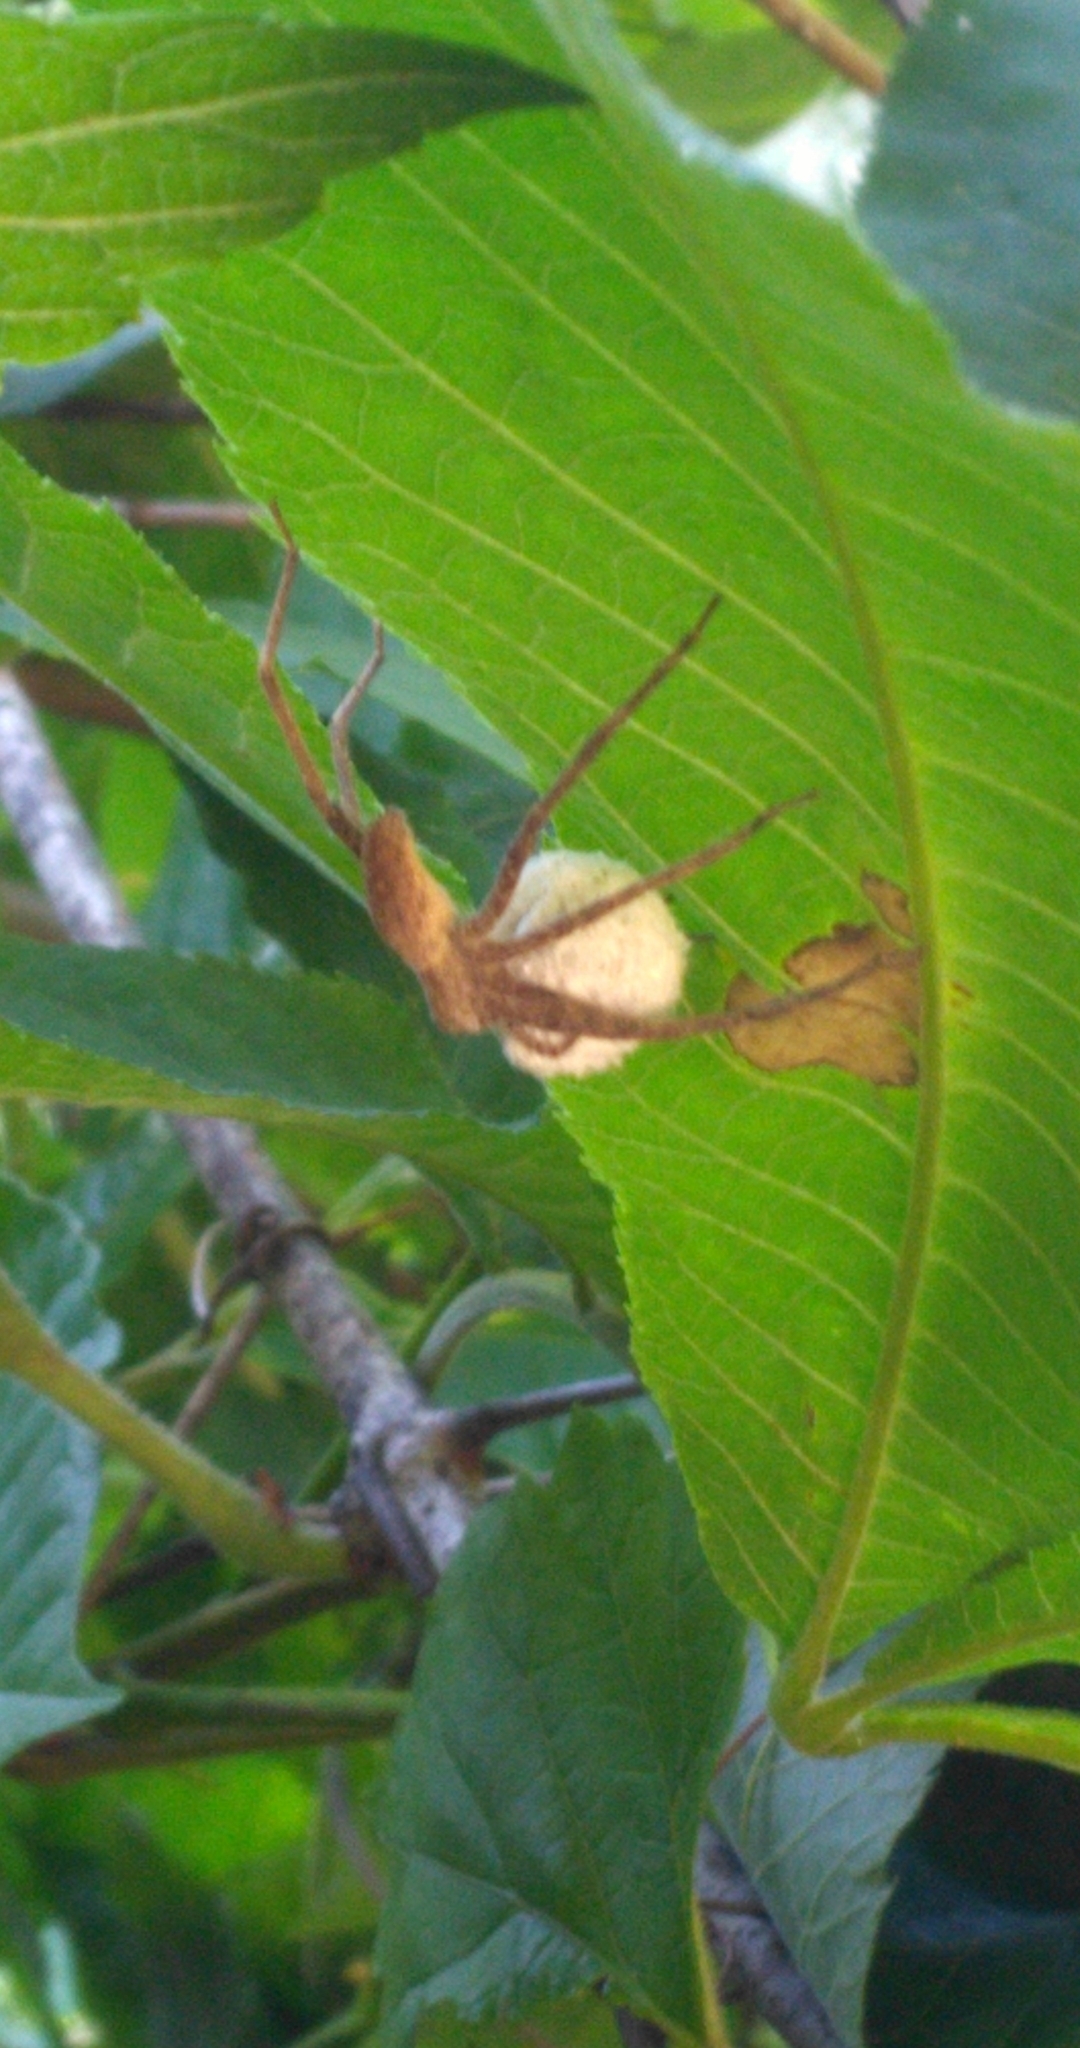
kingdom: Animalia
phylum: Arthropoda
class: Arachnida
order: Araneae
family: Pisauridae
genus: Pisaurina
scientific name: Pisaurina mira
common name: American nursery web spider
